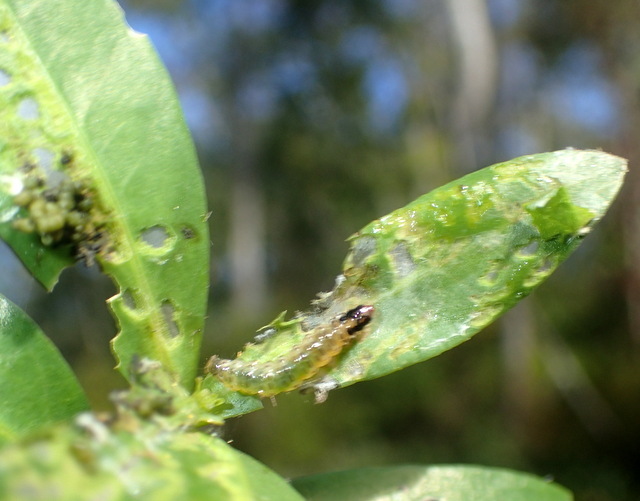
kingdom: Animalia
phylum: Arthropoda
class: Insecta
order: Lepidoptera
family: Crambidae
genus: Herpetogramma
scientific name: Herpetogramma bipunctalis
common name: Southern beet webworm
